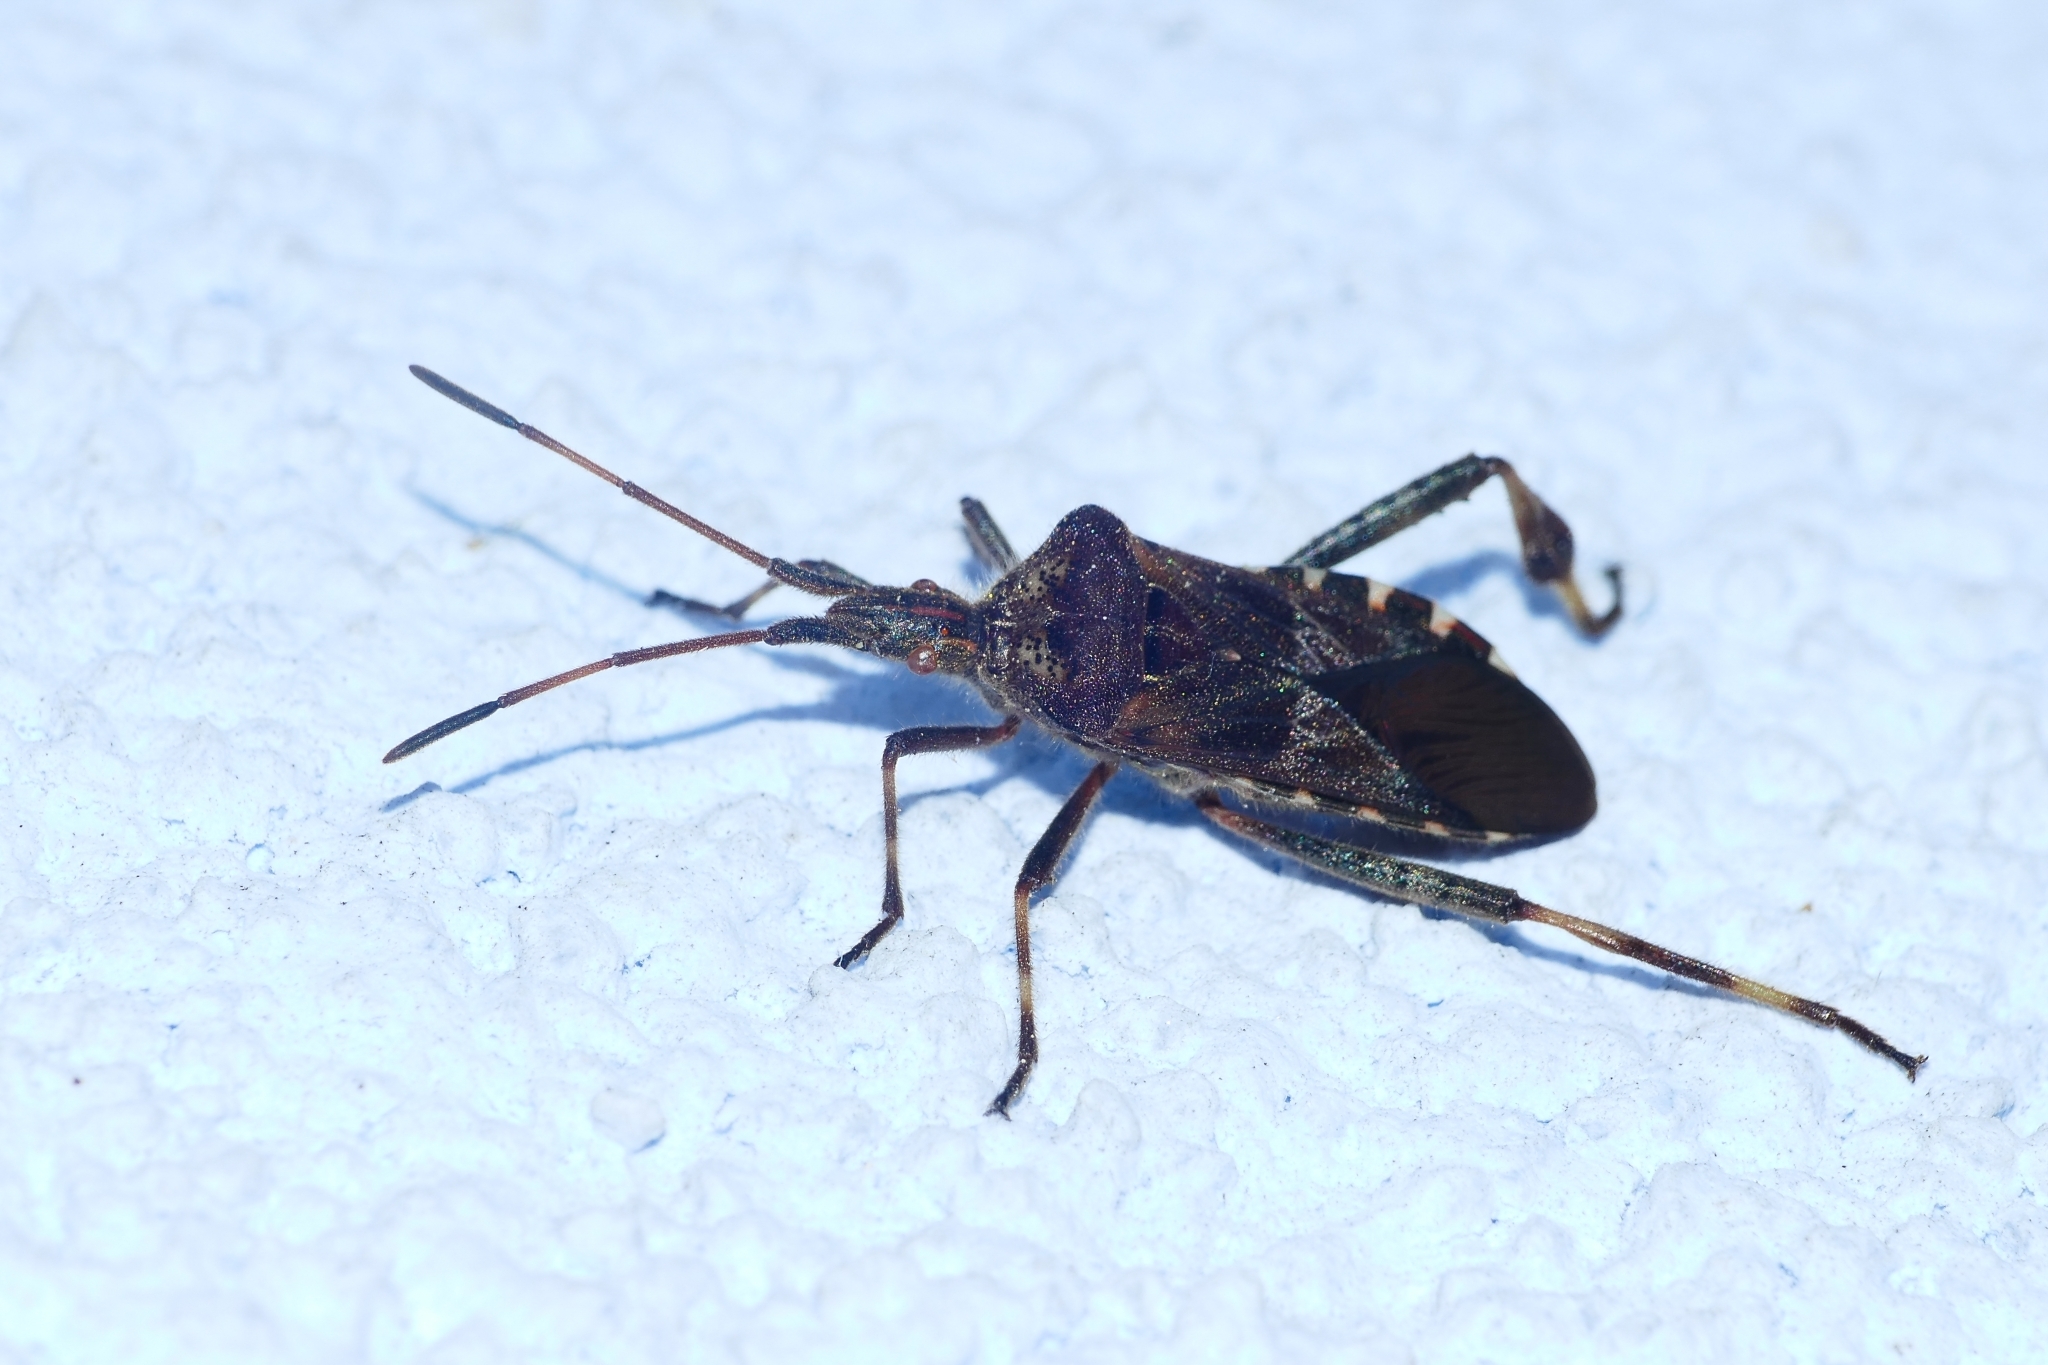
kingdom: Animalia
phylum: Arthropoda
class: Insecta
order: Hemiptera
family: Coreidae
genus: Leptoglossus
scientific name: Leptoglossus occidentalis
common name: Western conifer-seed bug
